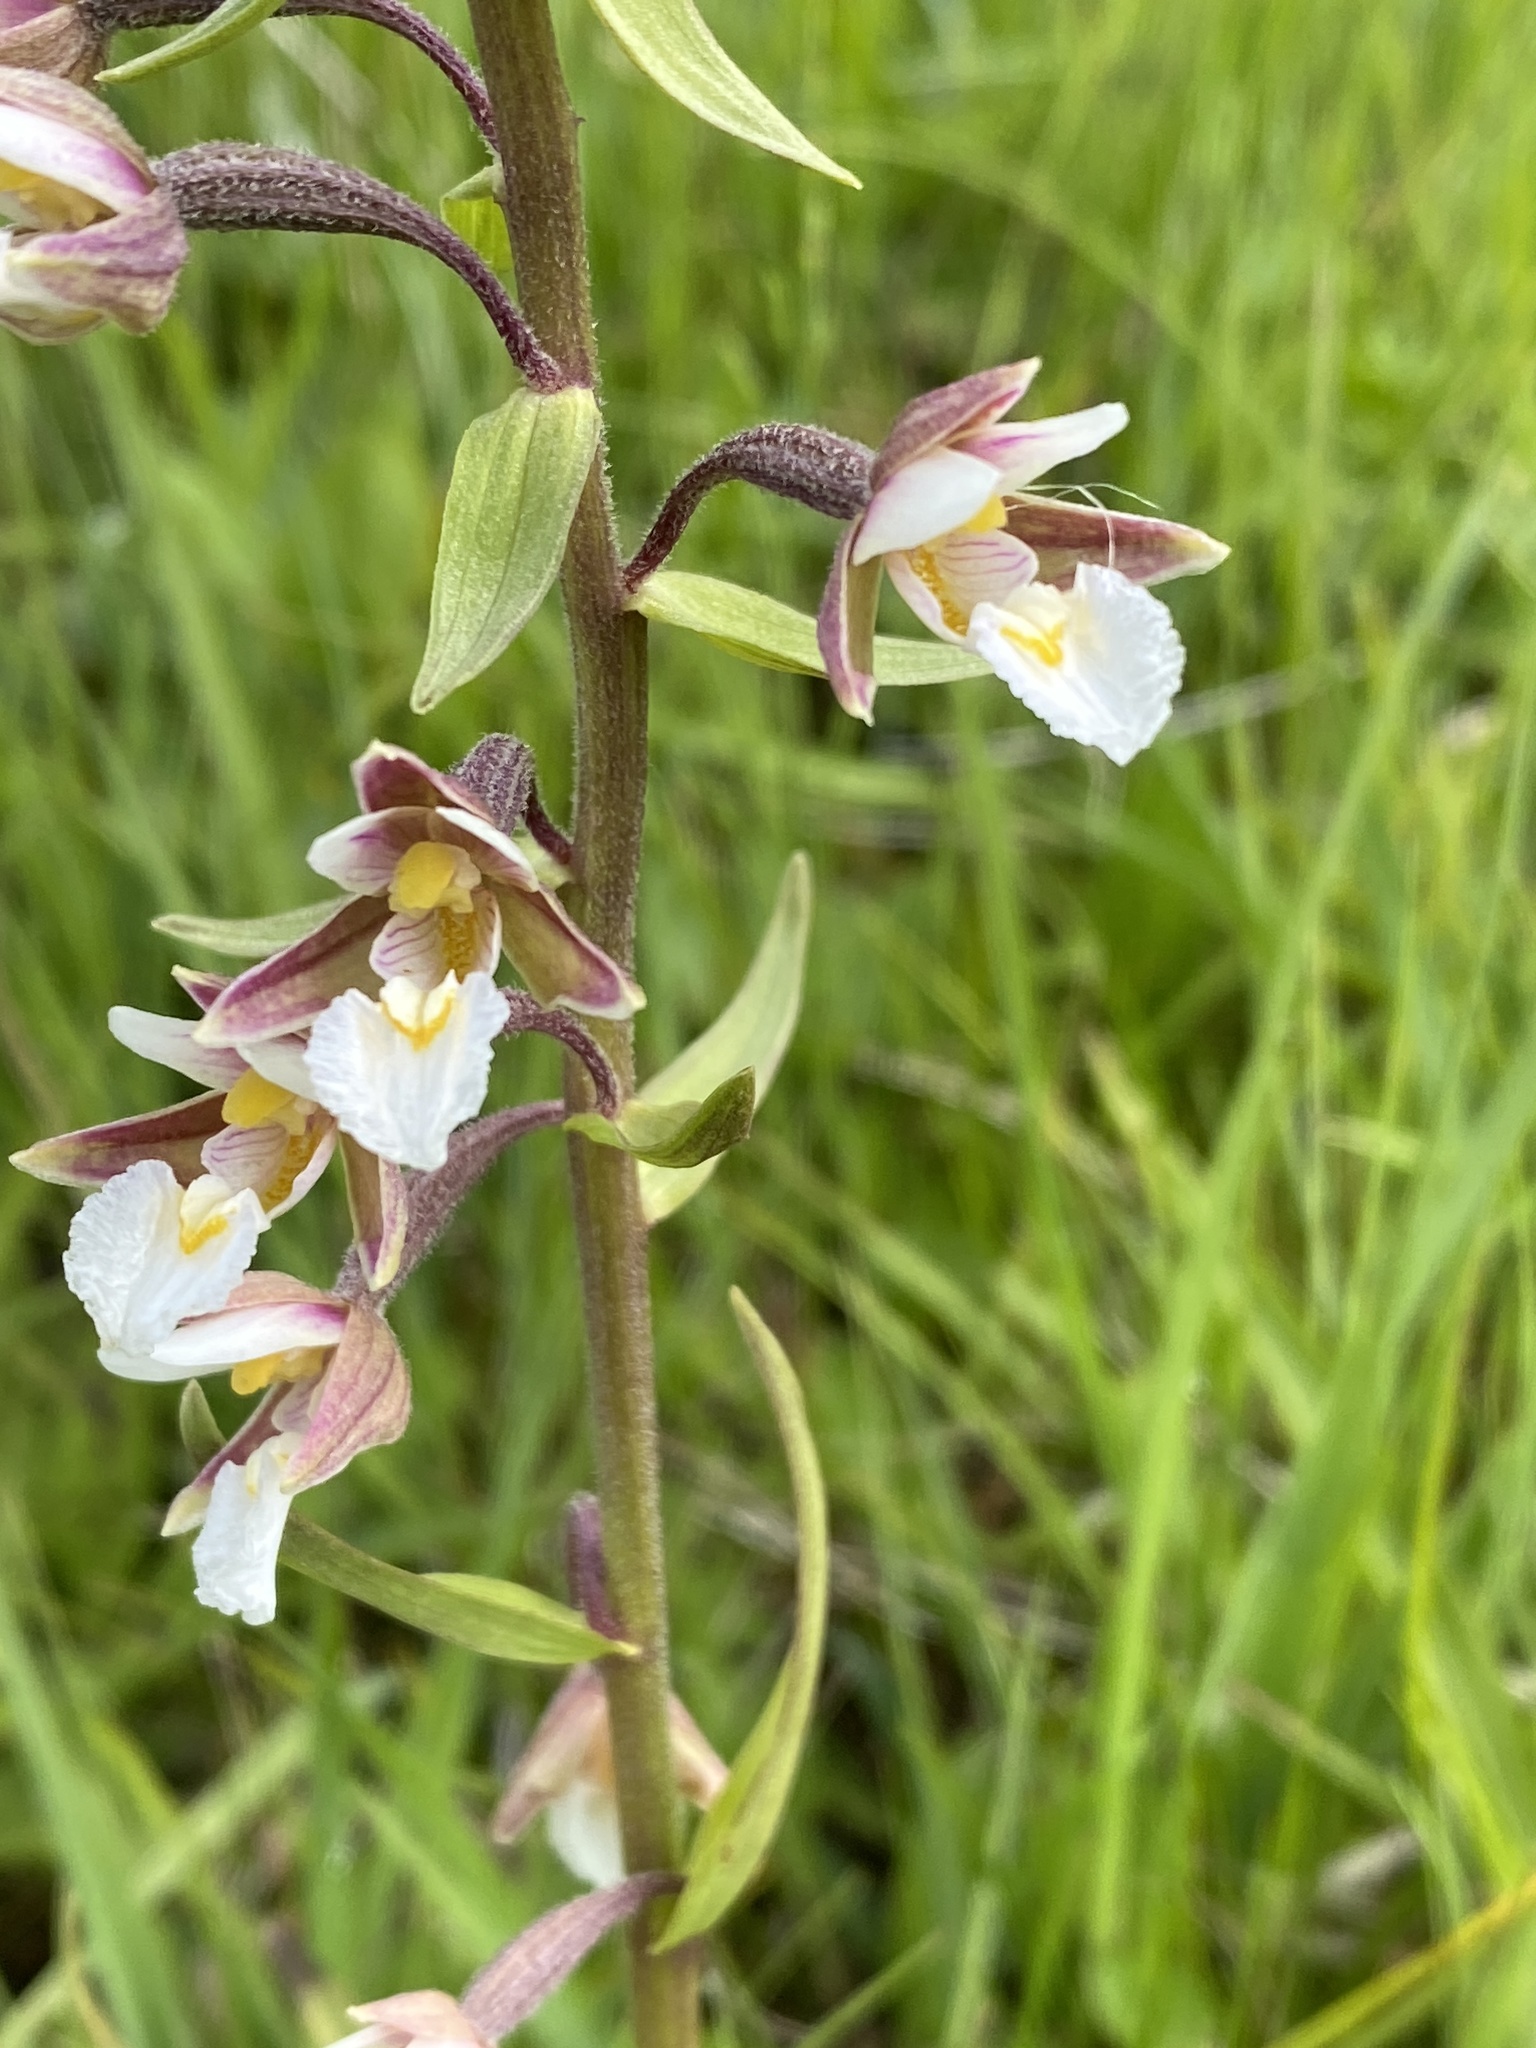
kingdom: Plantae
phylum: Tracheophyta
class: Liliopsida
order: Asparagales
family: Orchidaceae
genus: Epipactis
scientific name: Epipactis palustris
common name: Marsh helleborine
